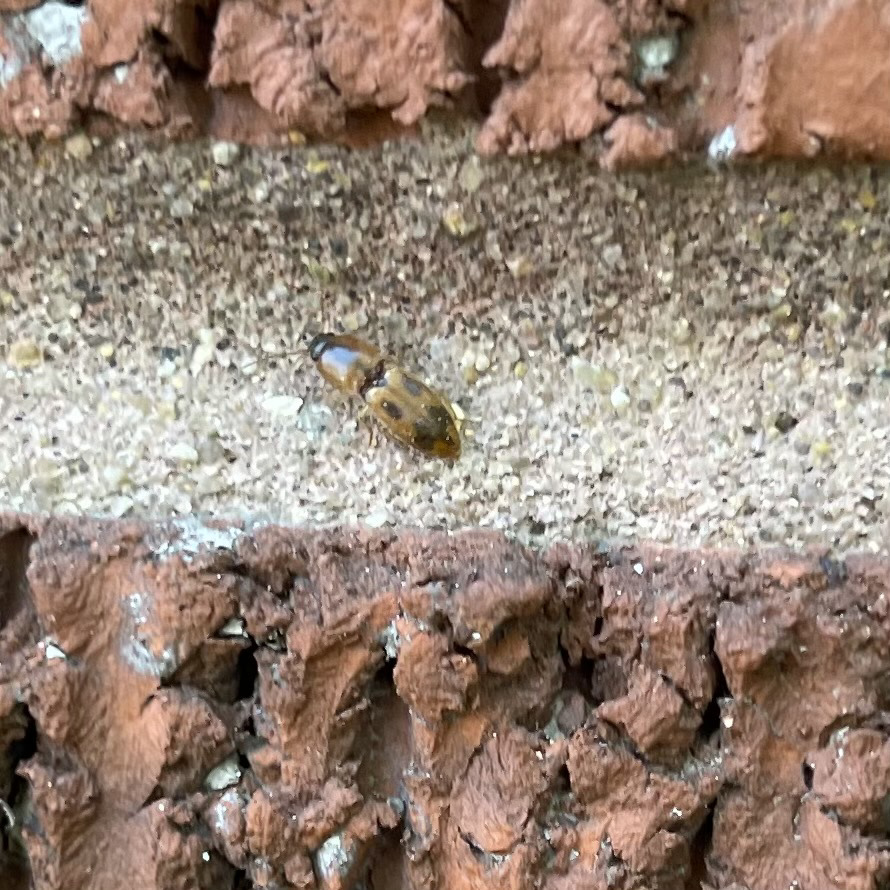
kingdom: Animalia
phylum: Arthropoda
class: Insecta
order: Coleoptera
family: Elateridae
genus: Aeolus
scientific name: Aeolus mellillus
